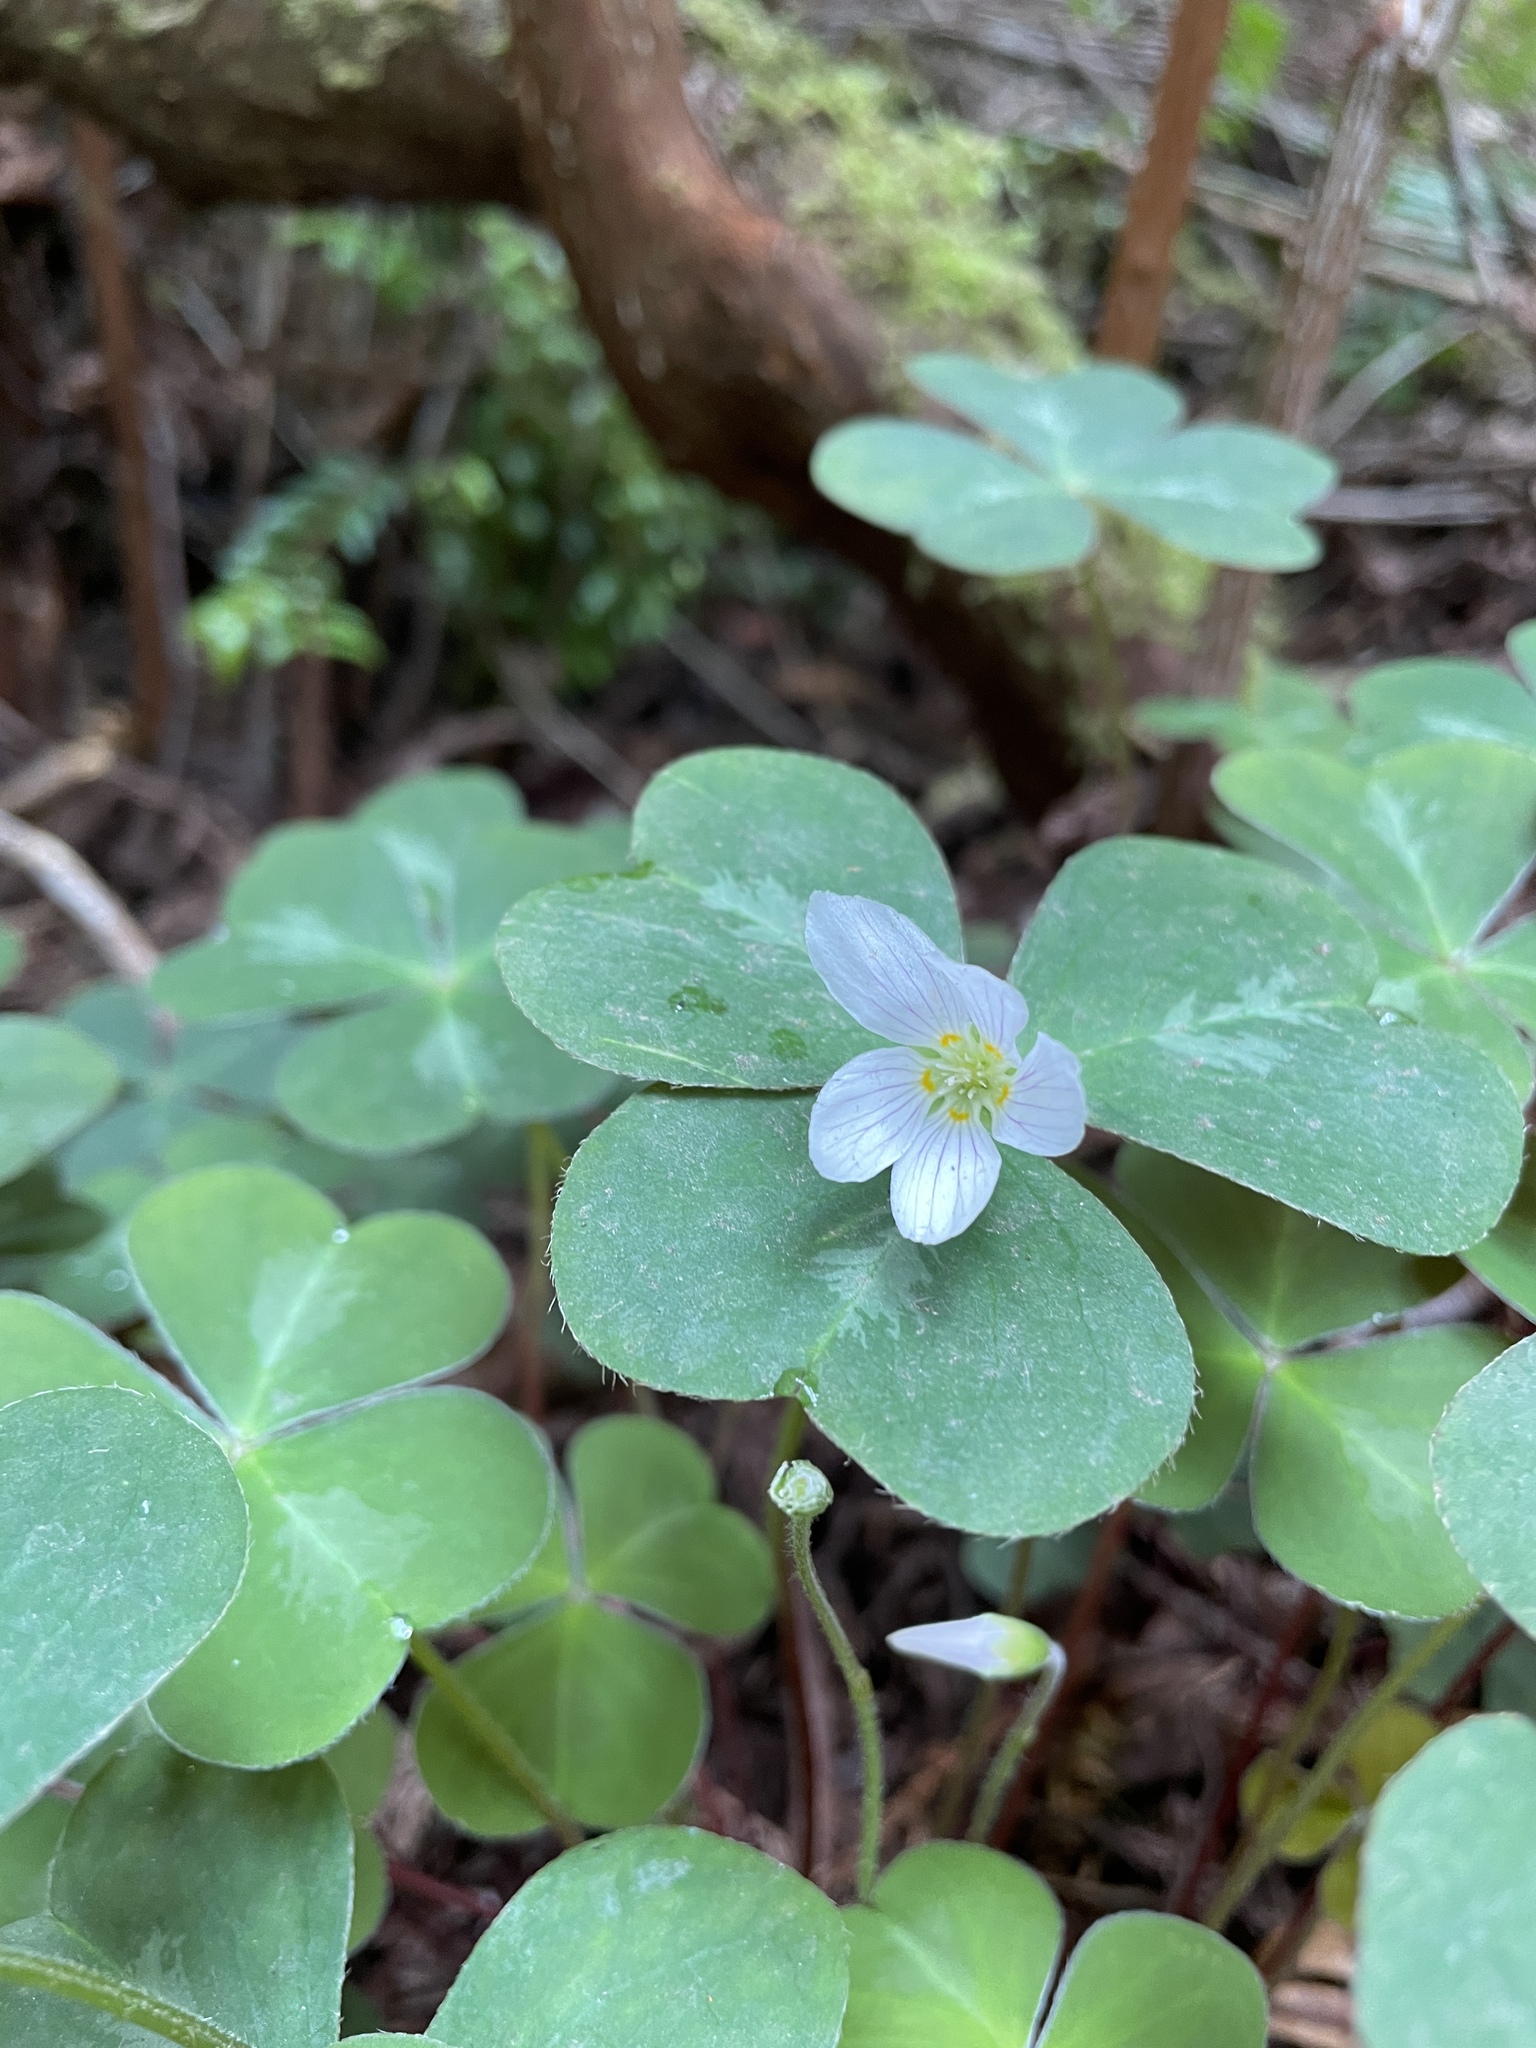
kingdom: Plantae
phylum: Tracheophyta
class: Magnoliopsida
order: Oxalidales
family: Oxalidaceae
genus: Oxalis
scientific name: Oxalis oregana
